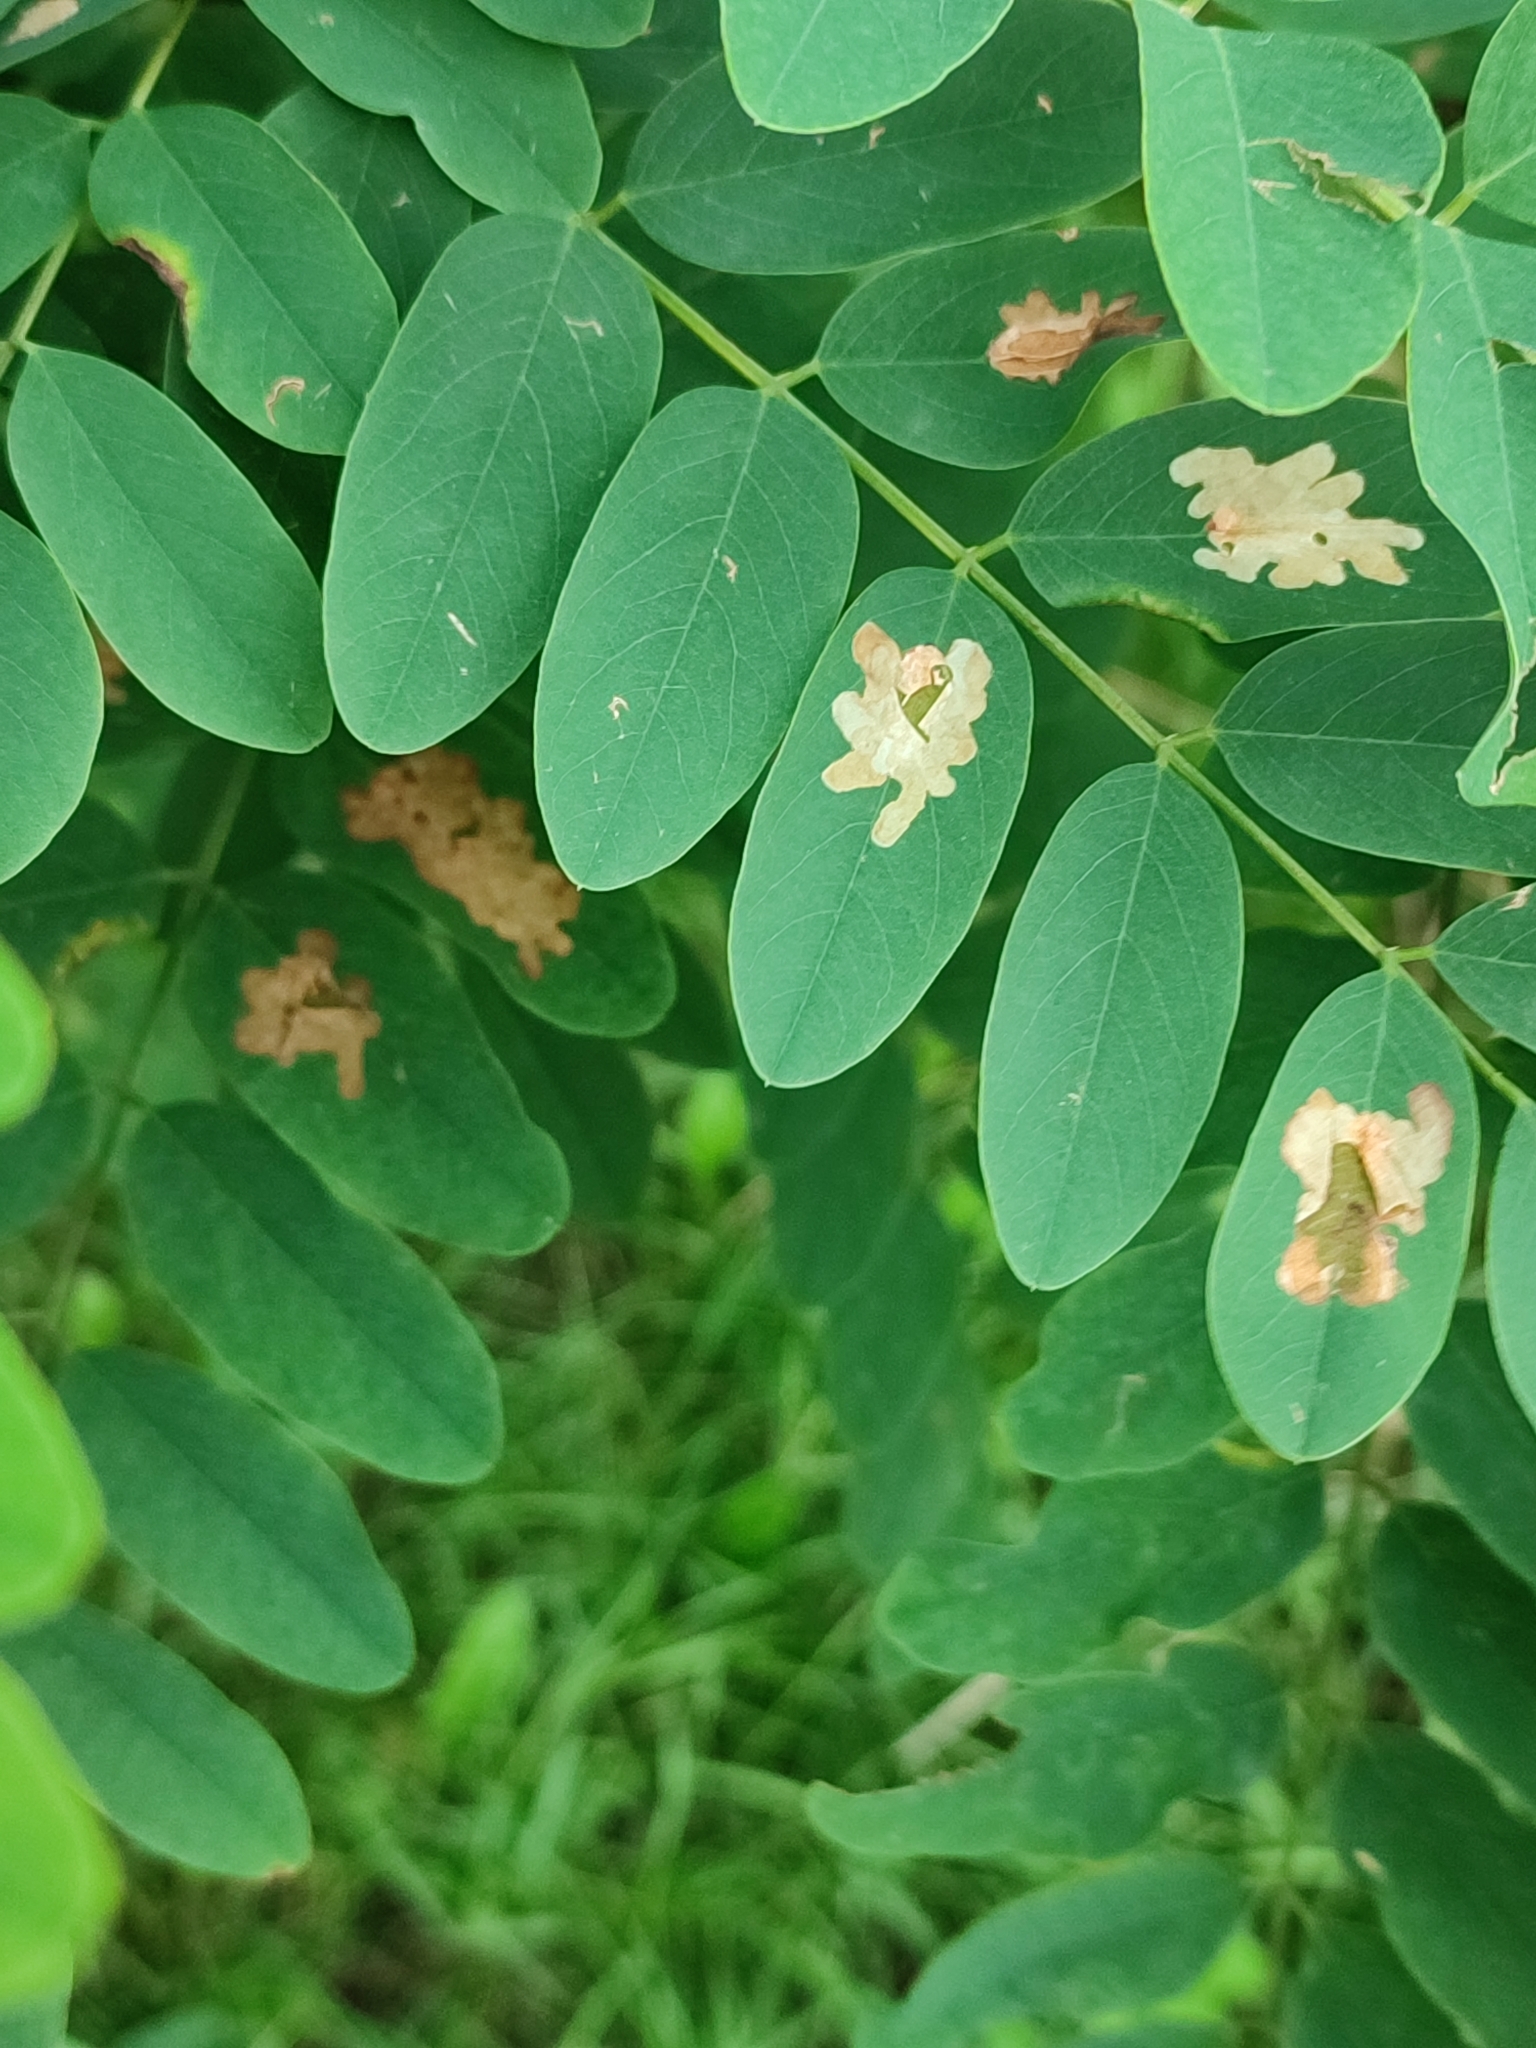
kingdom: Animalia
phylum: Arthropoda
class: Insecta
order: Lepidoptera
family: Gracillariidae
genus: Parectopa
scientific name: Parectopa robiniella
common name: Locust digitate leafminer
